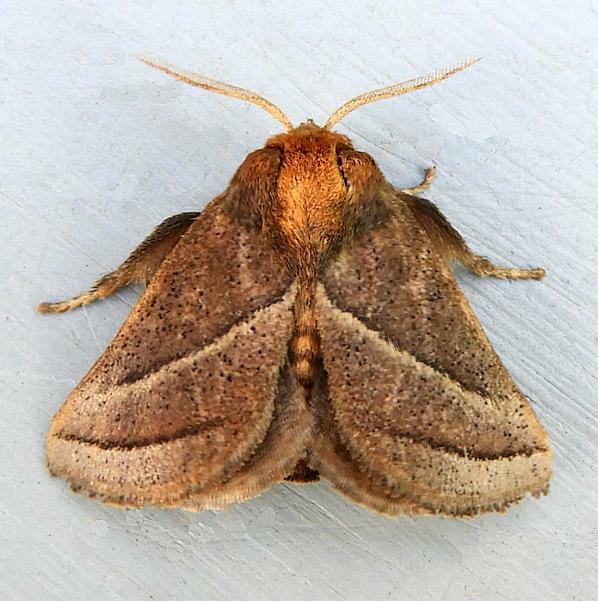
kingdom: Animalia
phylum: Arthropoda
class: Insecta
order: Lepidoptera
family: Limacodidae
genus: Natada
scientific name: Natada nasoni
